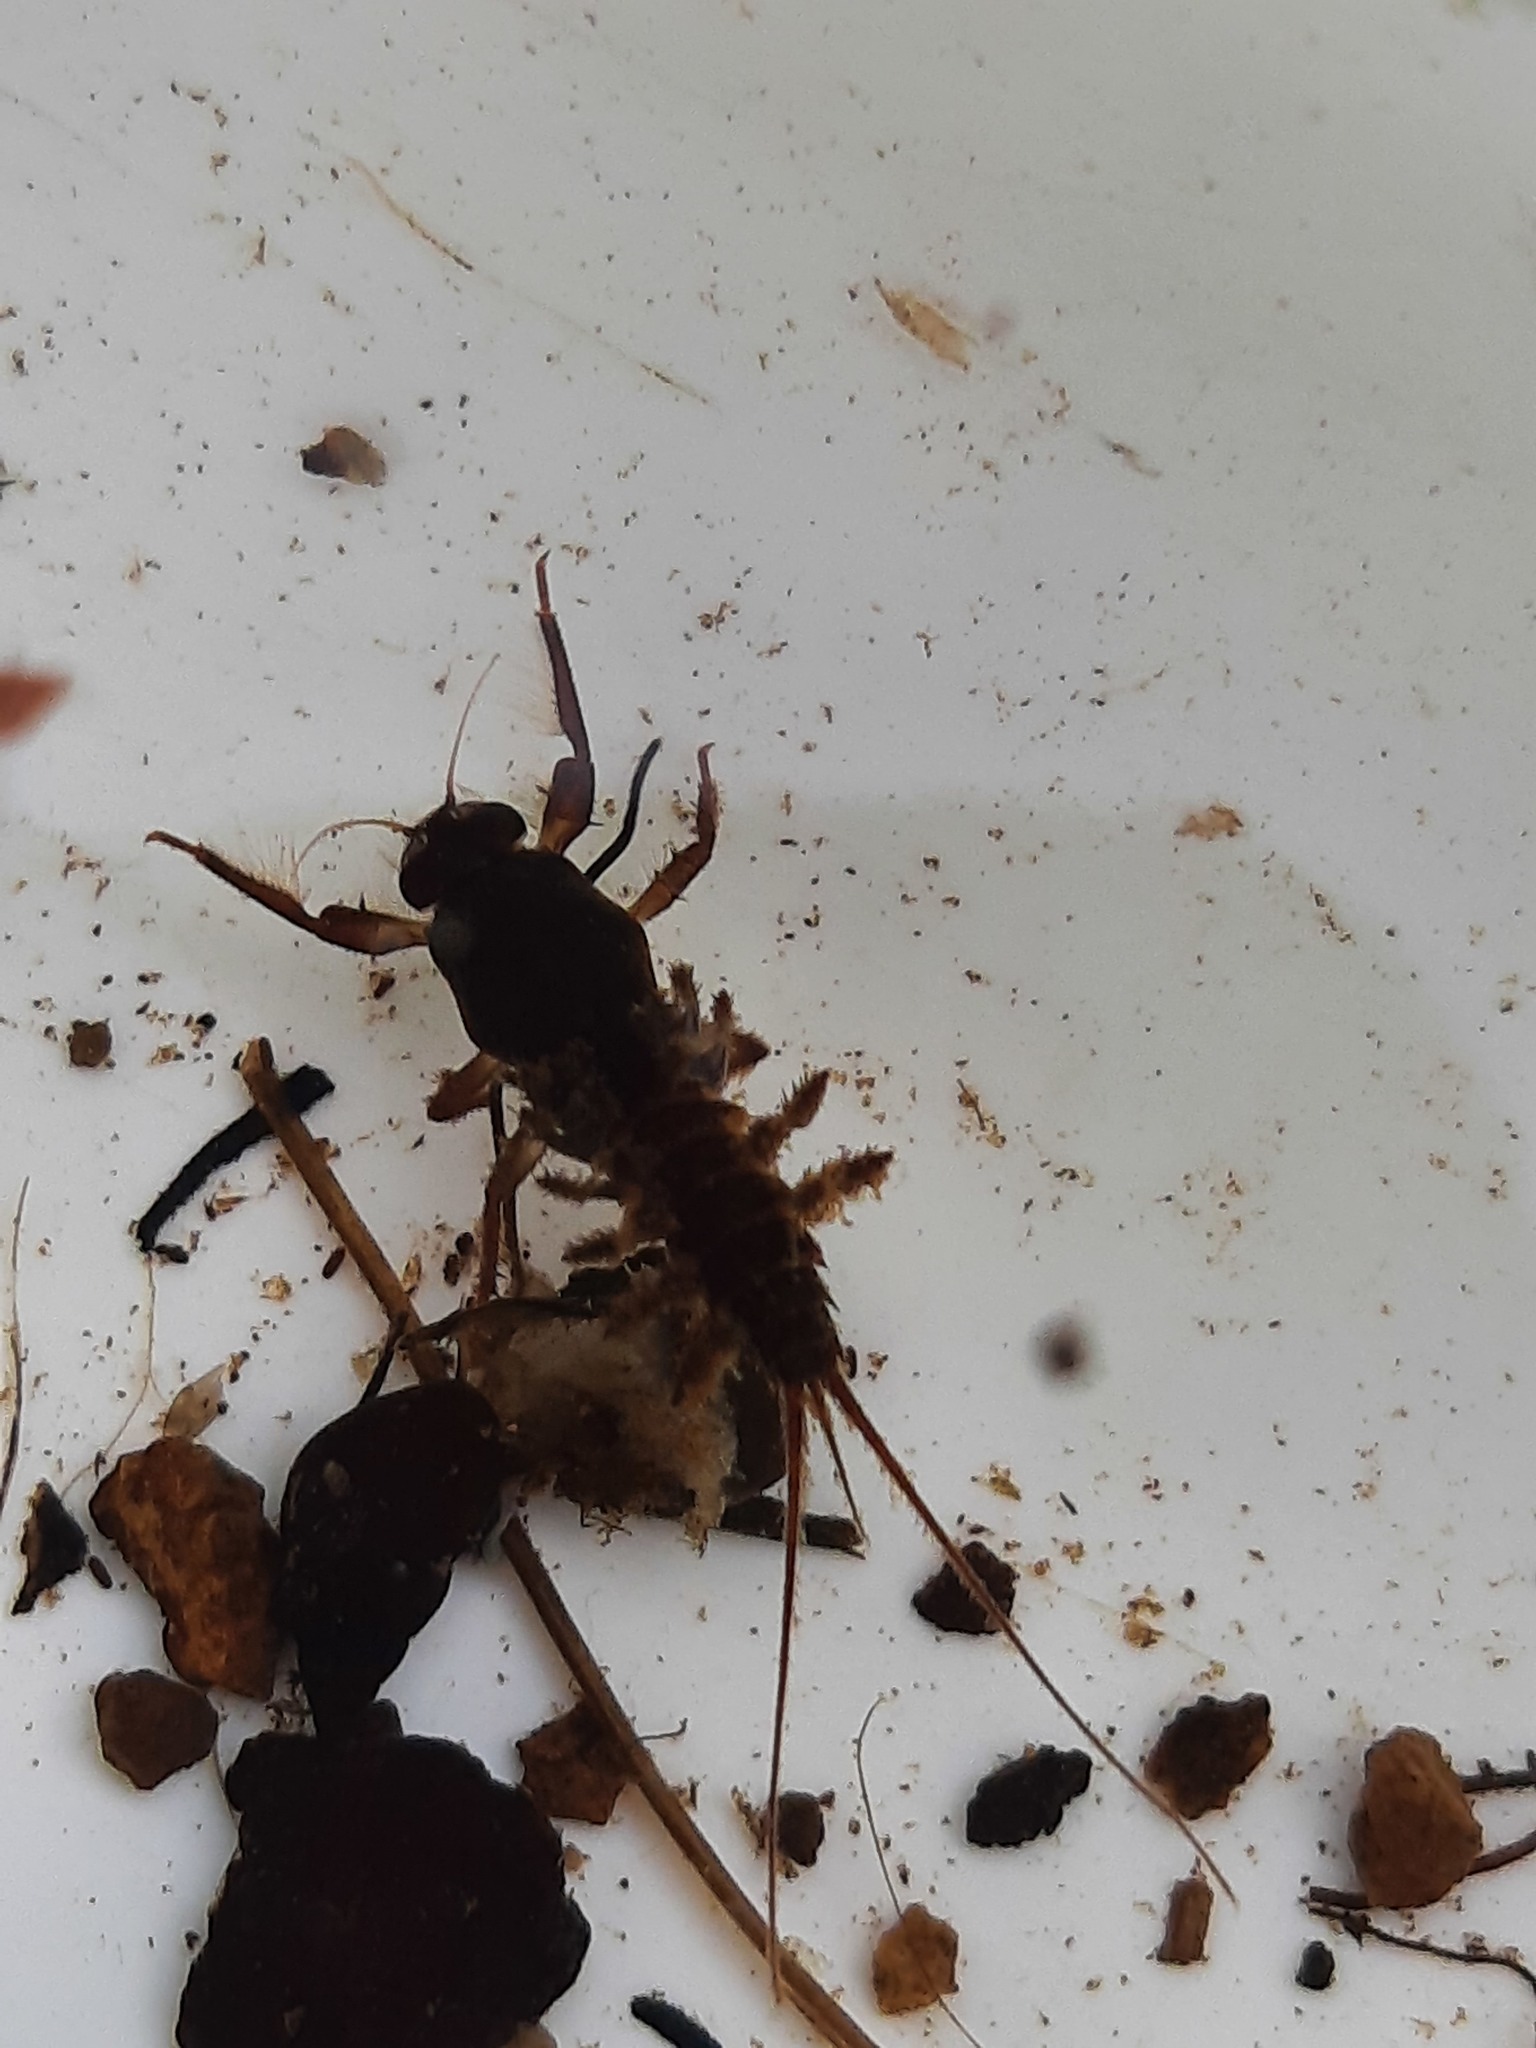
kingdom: Animalia
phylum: Arthropoda
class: Insecta
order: Ephemeroptera
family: Coloburiscidae
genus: Coloburiscus
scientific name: Coloburiscus humeralis
